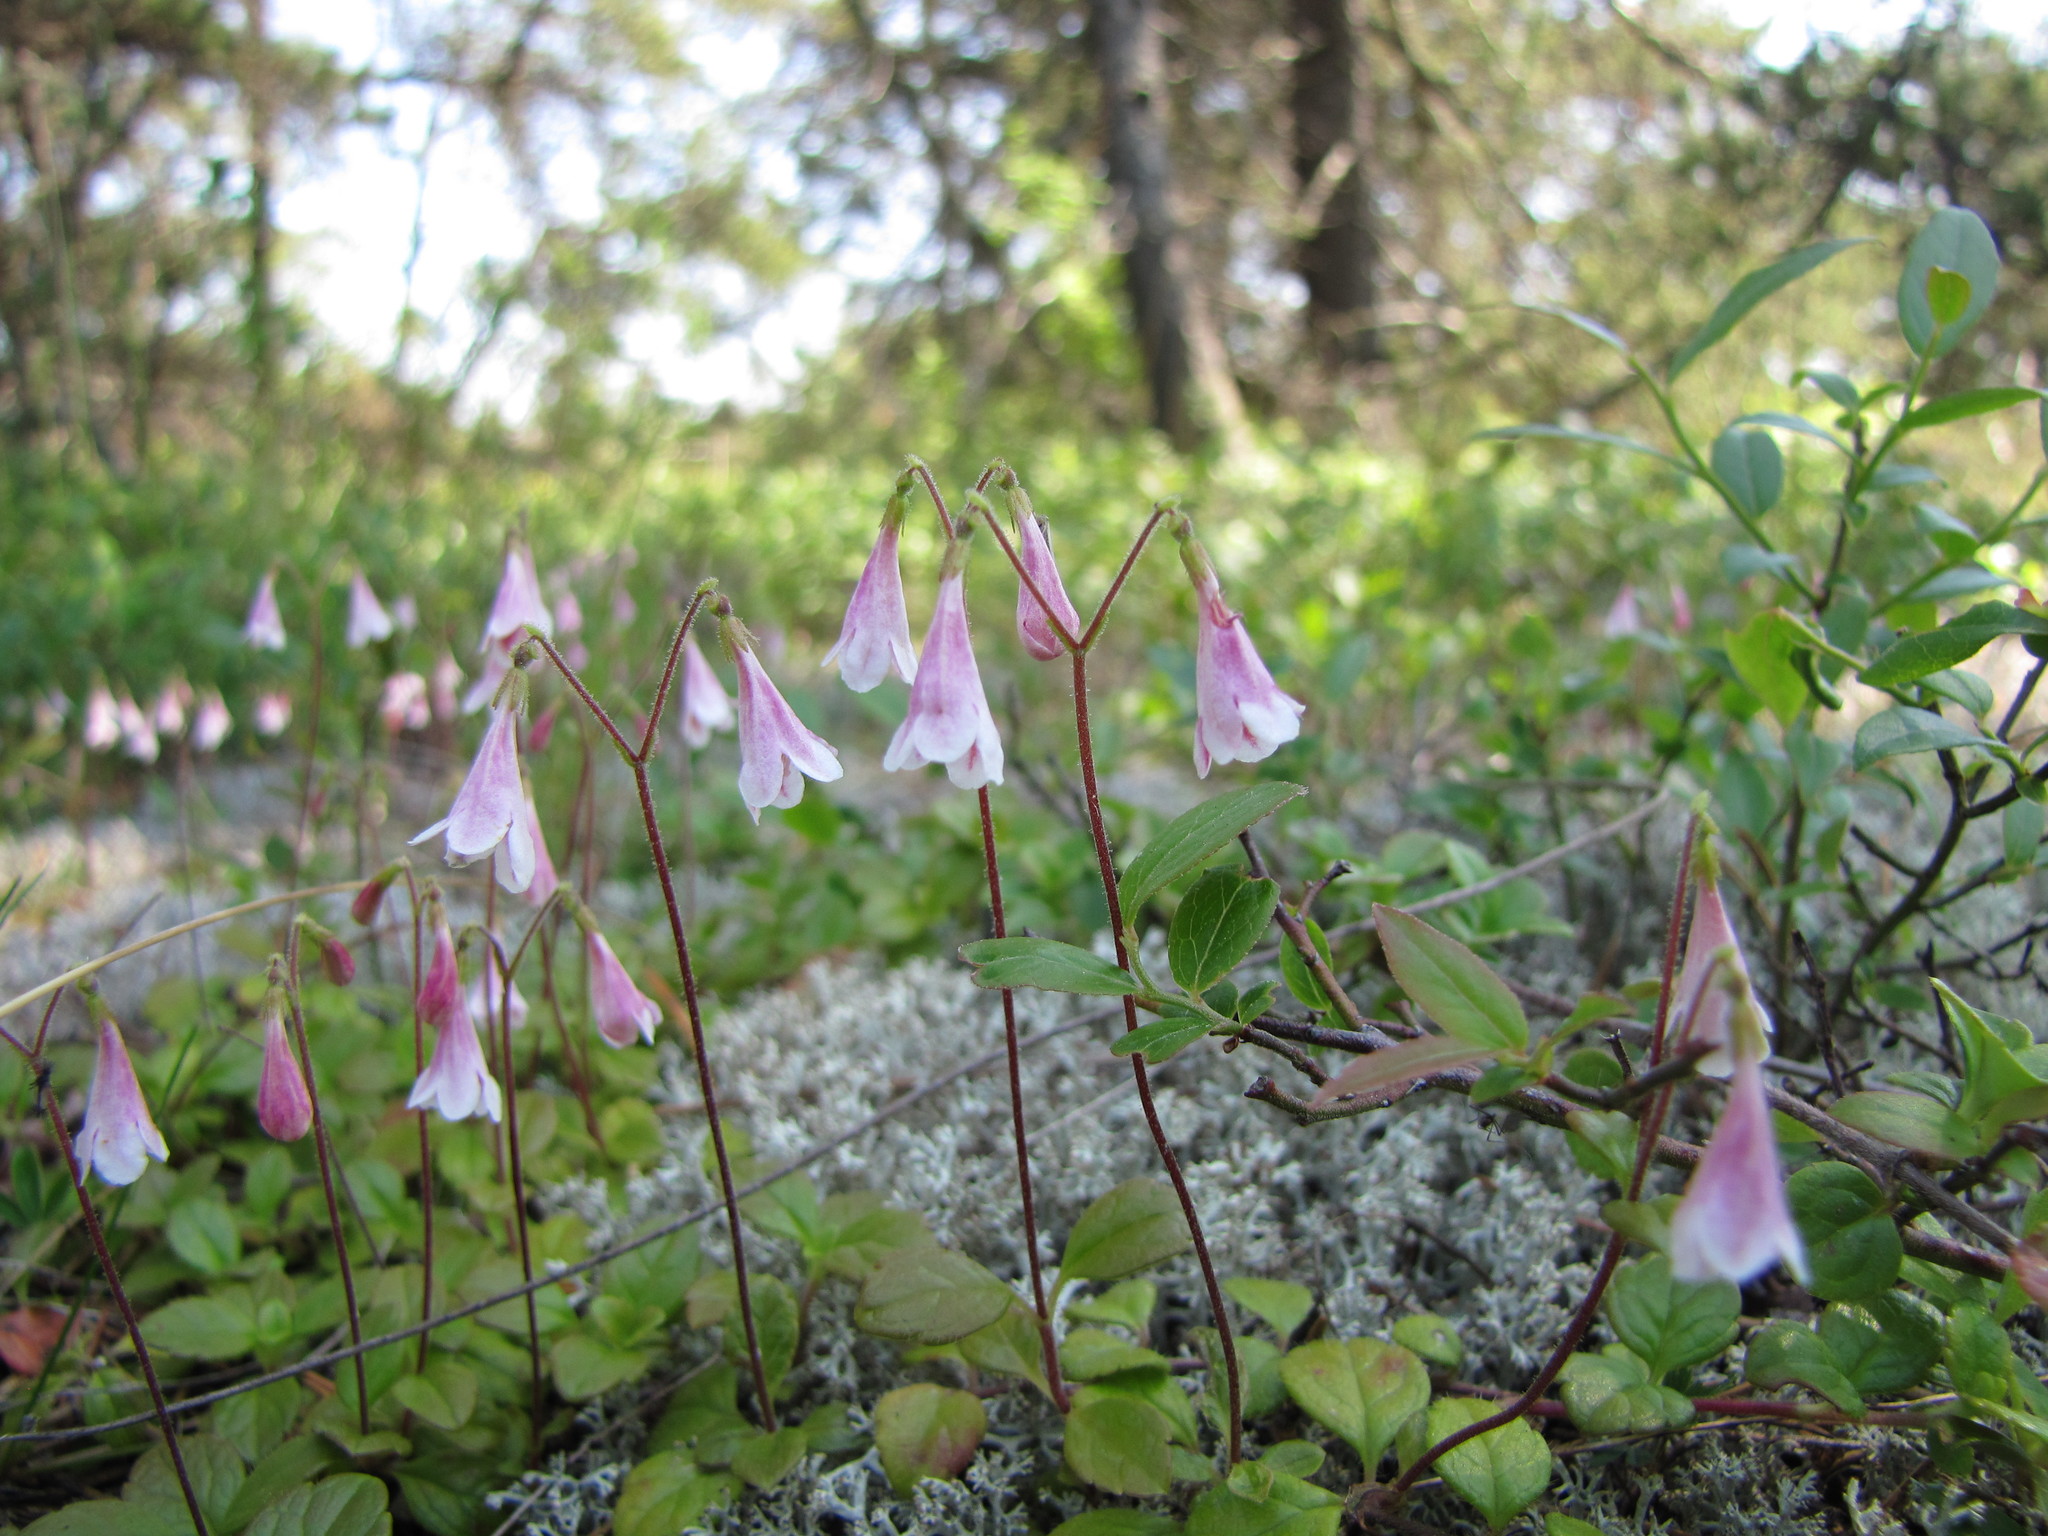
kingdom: Plantae
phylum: Tracheophyta
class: Magnoliopsida
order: Dipsacales
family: Caprifoliaceae
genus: Linnaea
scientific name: Linnaea borealis
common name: Twinflower
